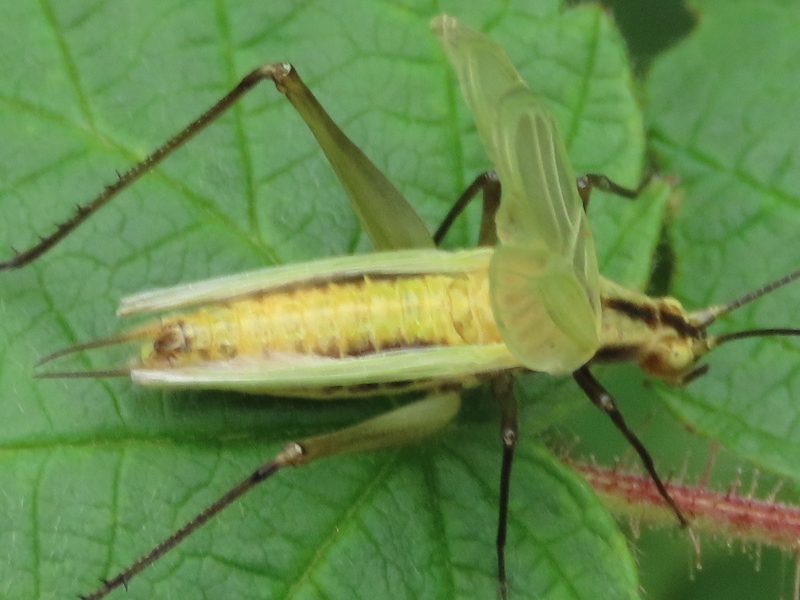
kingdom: Animalia
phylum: Arthropoda
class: Insecta
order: Orthoptera
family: Gryllidae
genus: Oecanthus
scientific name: Oecanthus nigricornis
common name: Black-horned tree cricket
